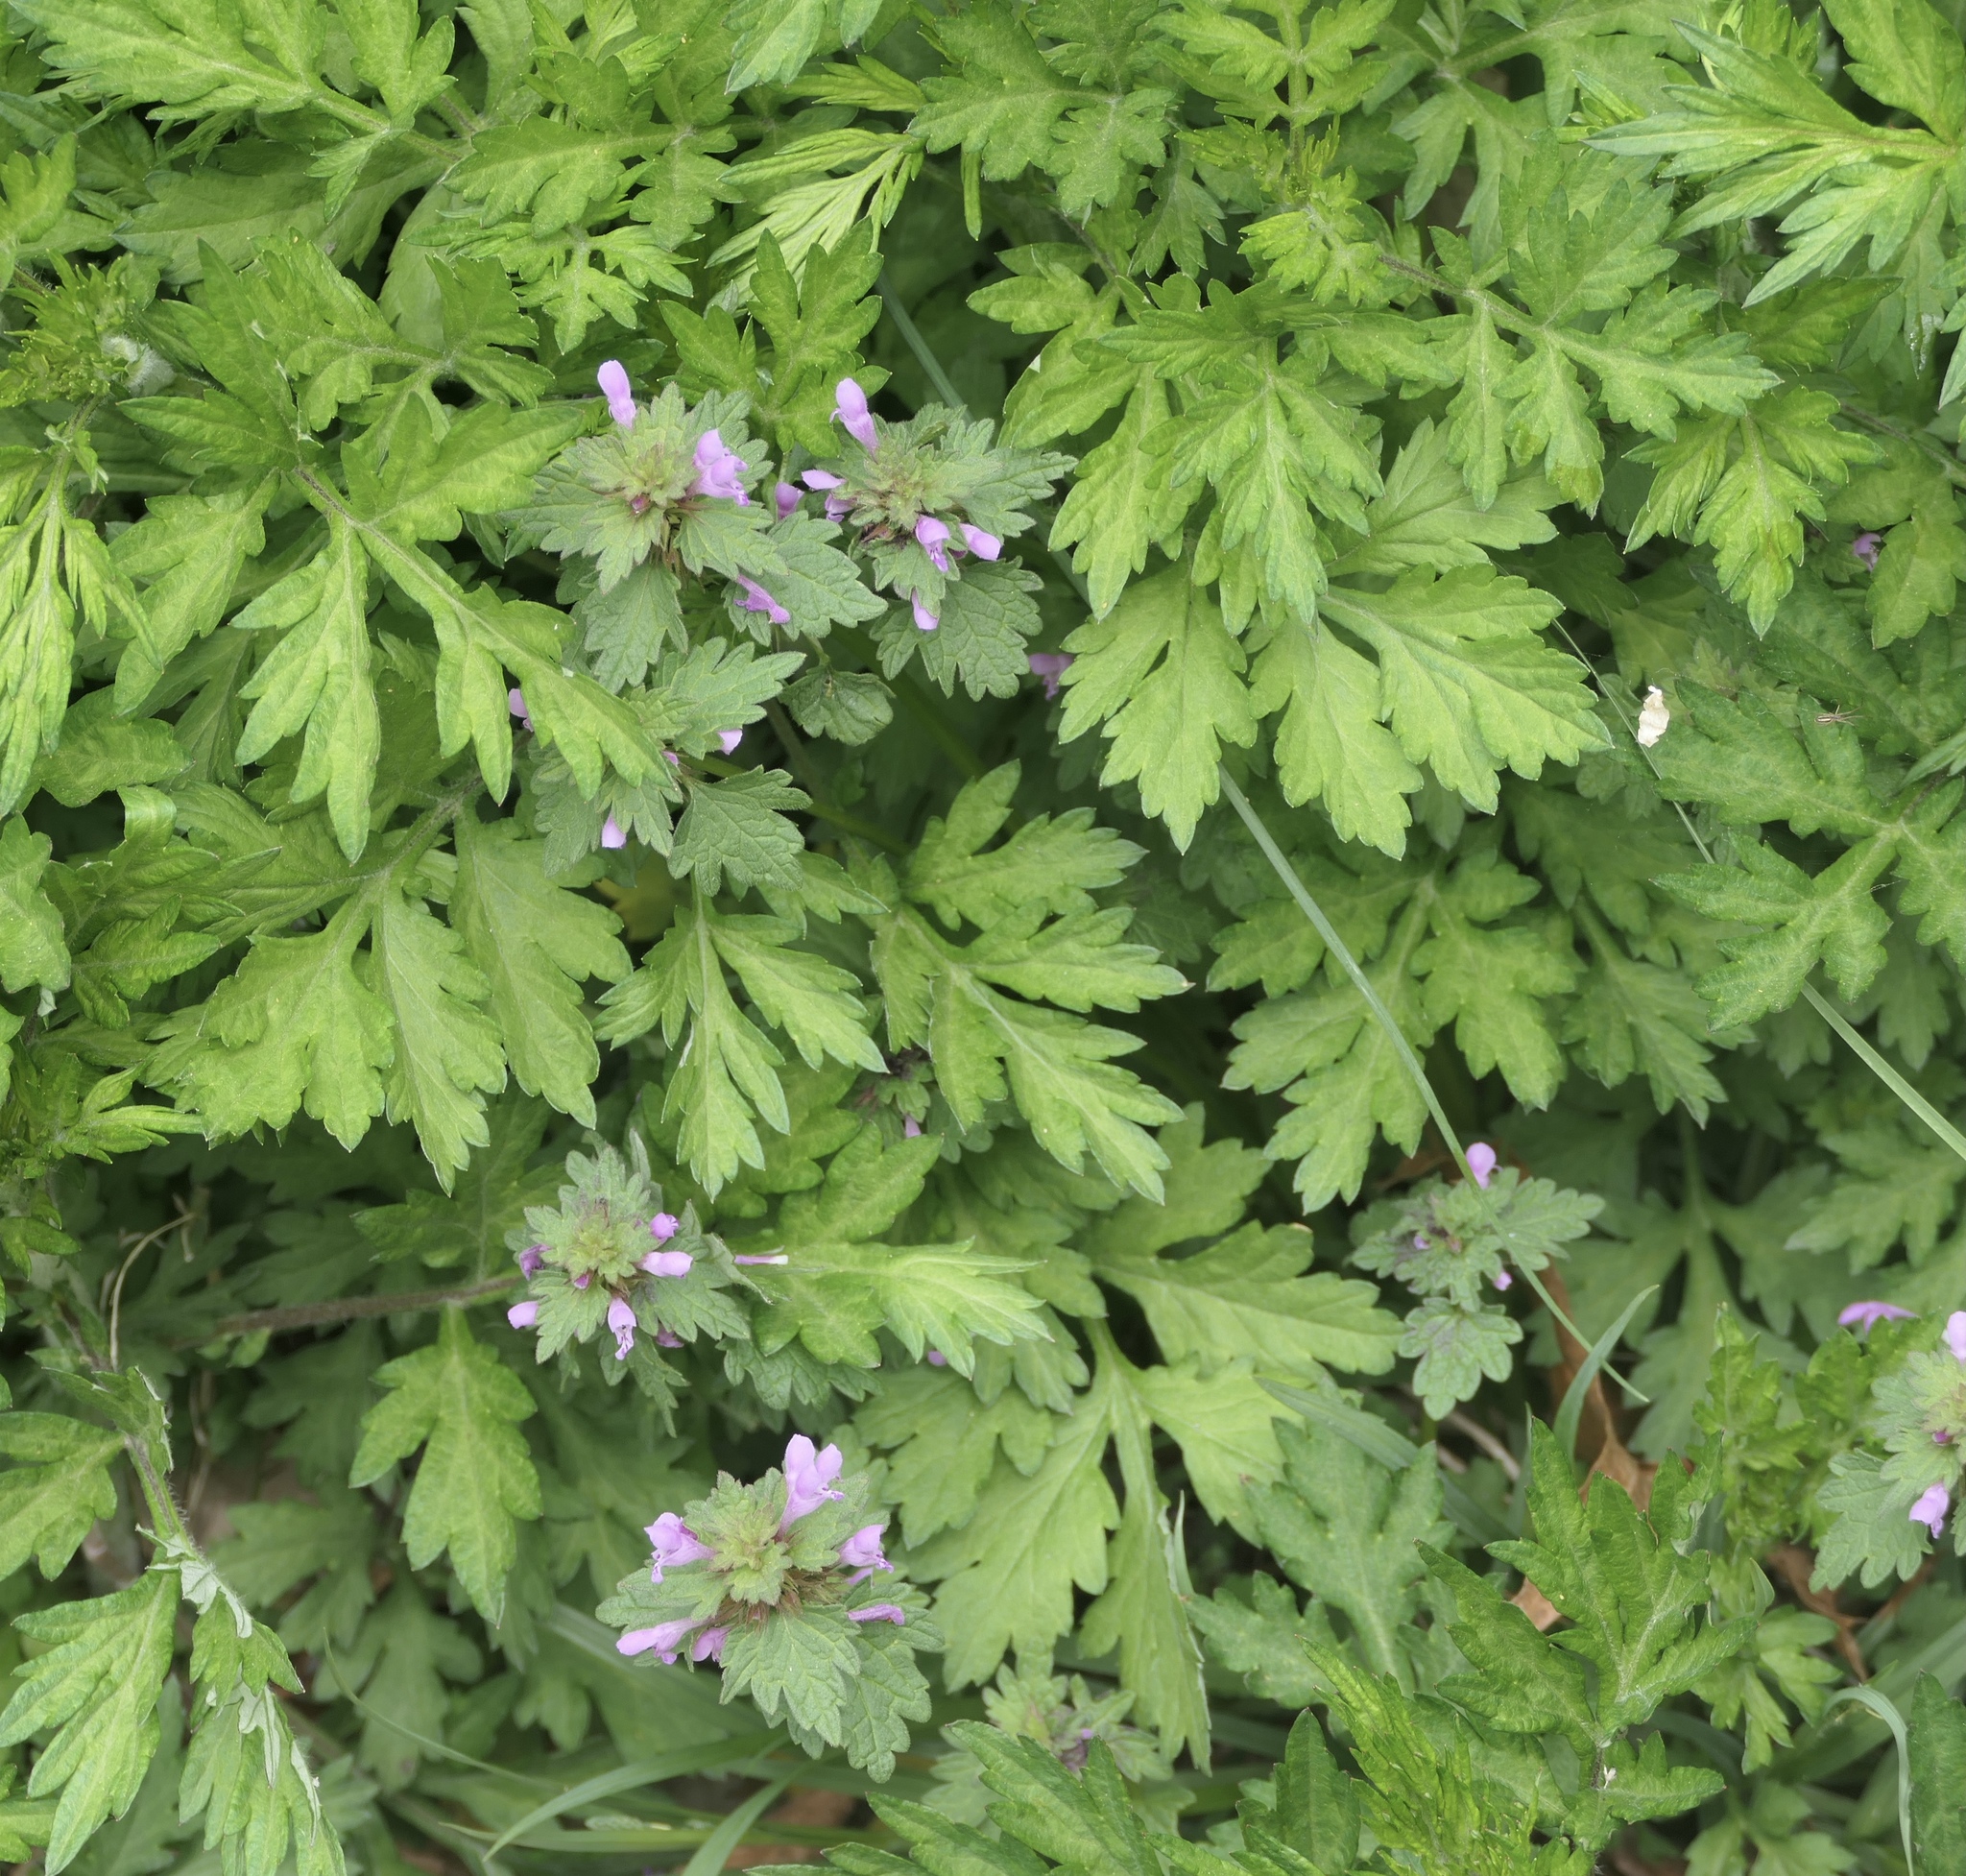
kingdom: Plantae
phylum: Tracheophyta
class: Magnoliopsida
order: Lamiales
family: Lamiaceae
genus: Lamium
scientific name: Lamium hybridum
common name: Cut-leaved dead-nettle
